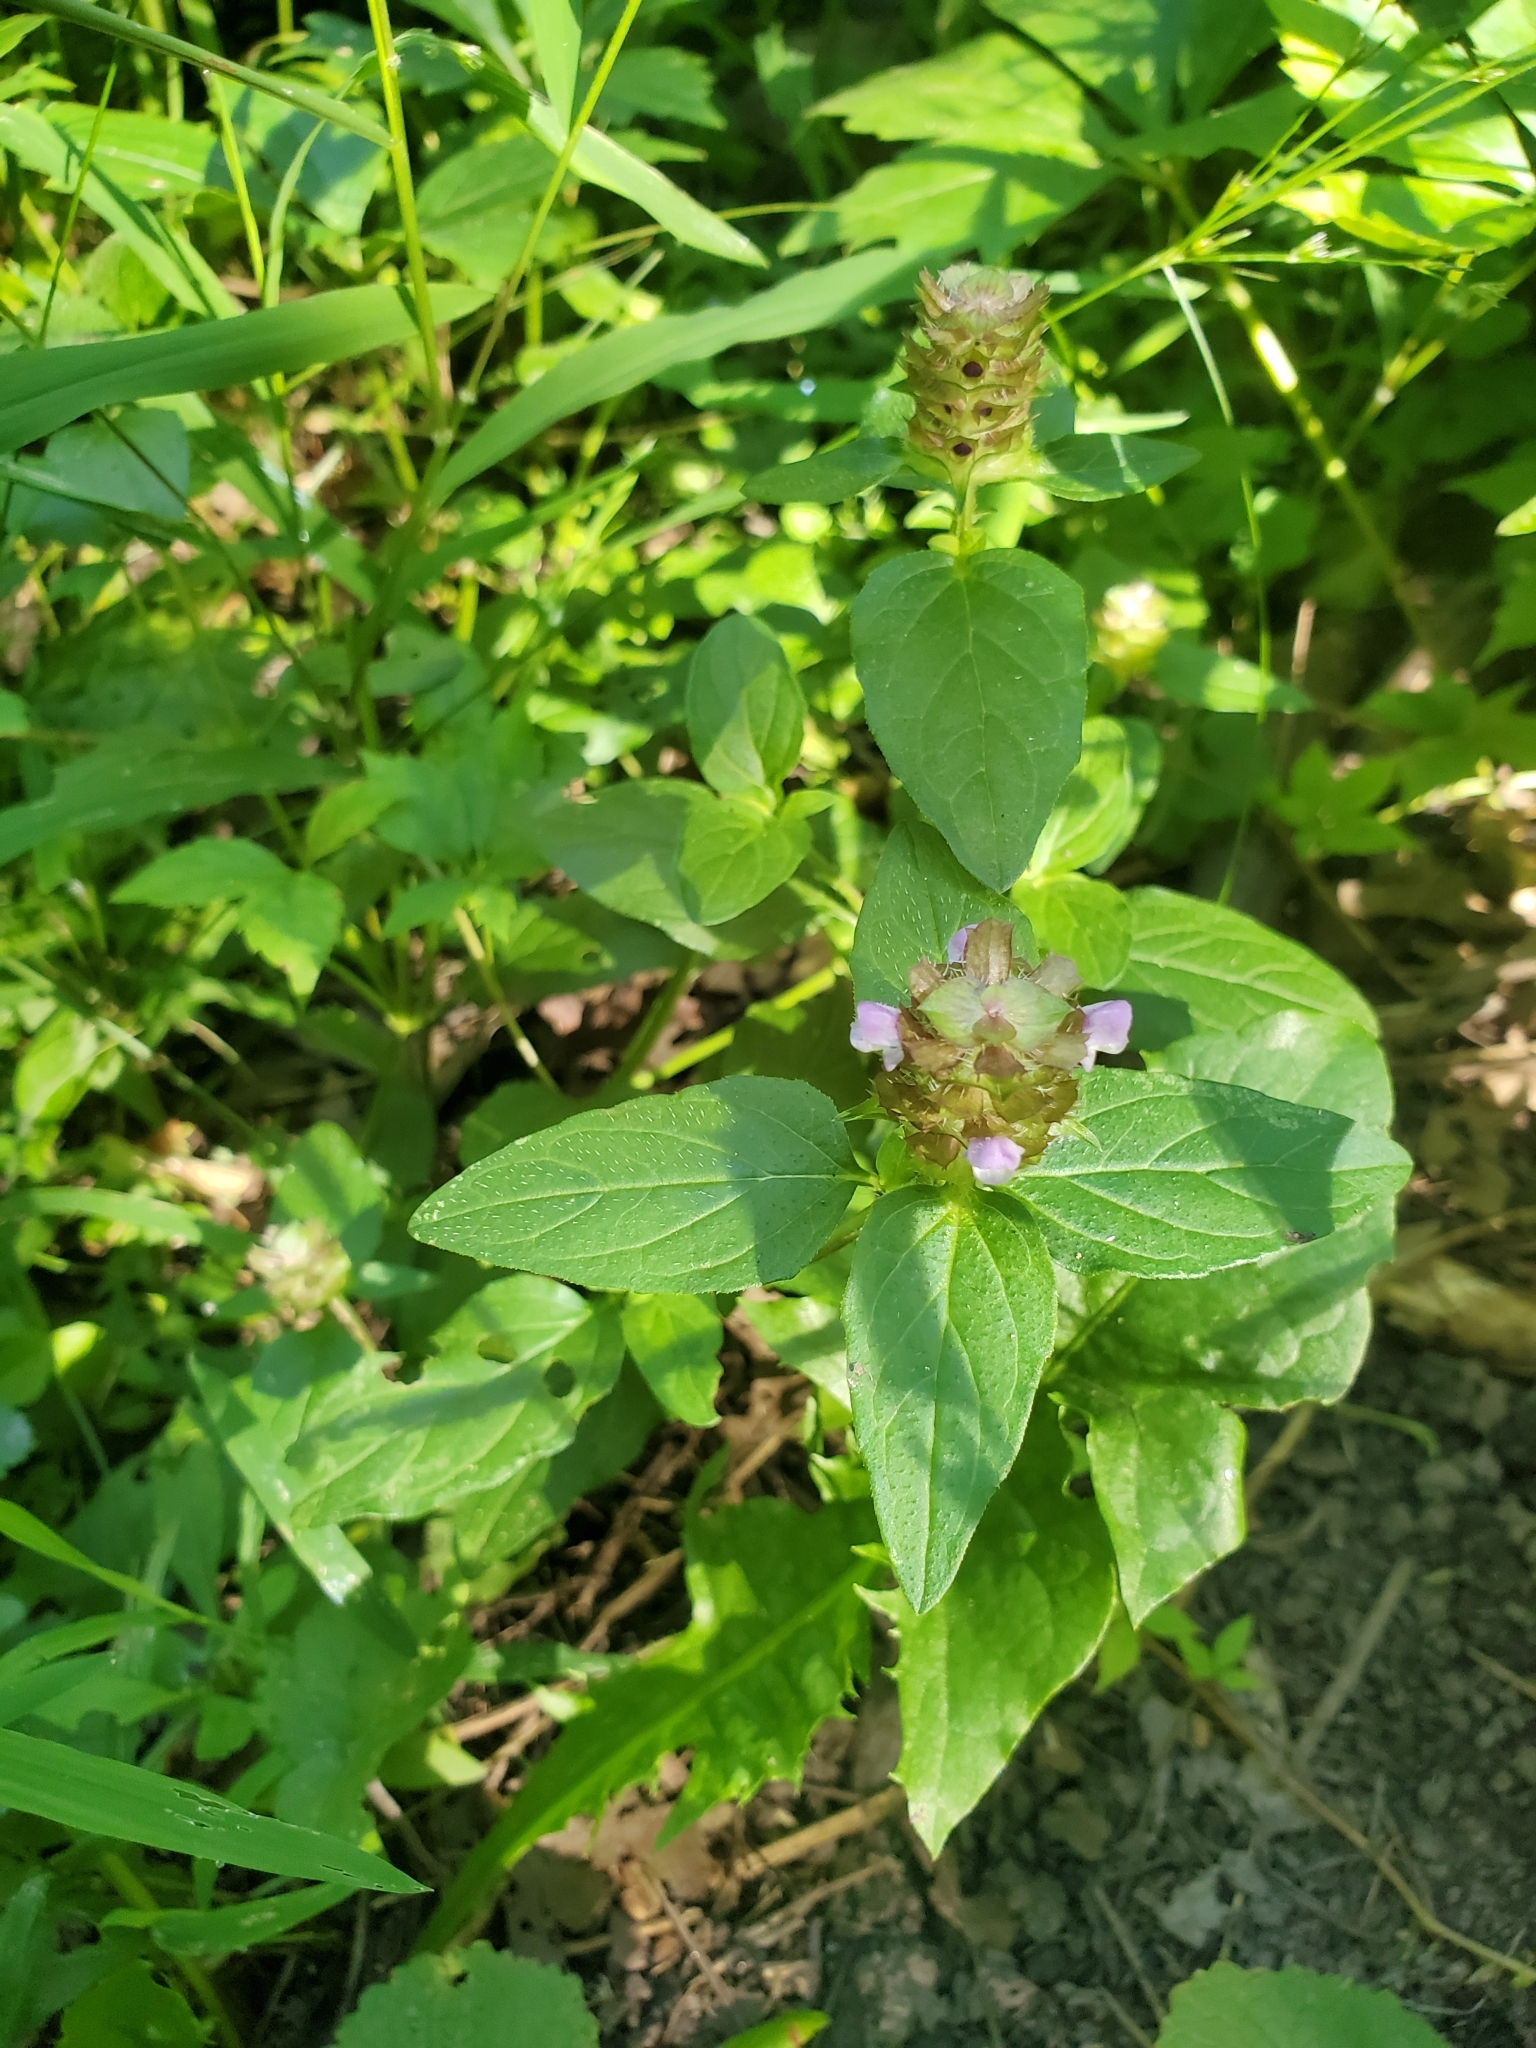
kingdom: Plantae
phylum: Tracheophyta
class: Magnoliopsida
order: Lamiales
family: Lamiaceae
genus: Prunella
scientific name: Prunella vulgaris
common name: Heal-all
